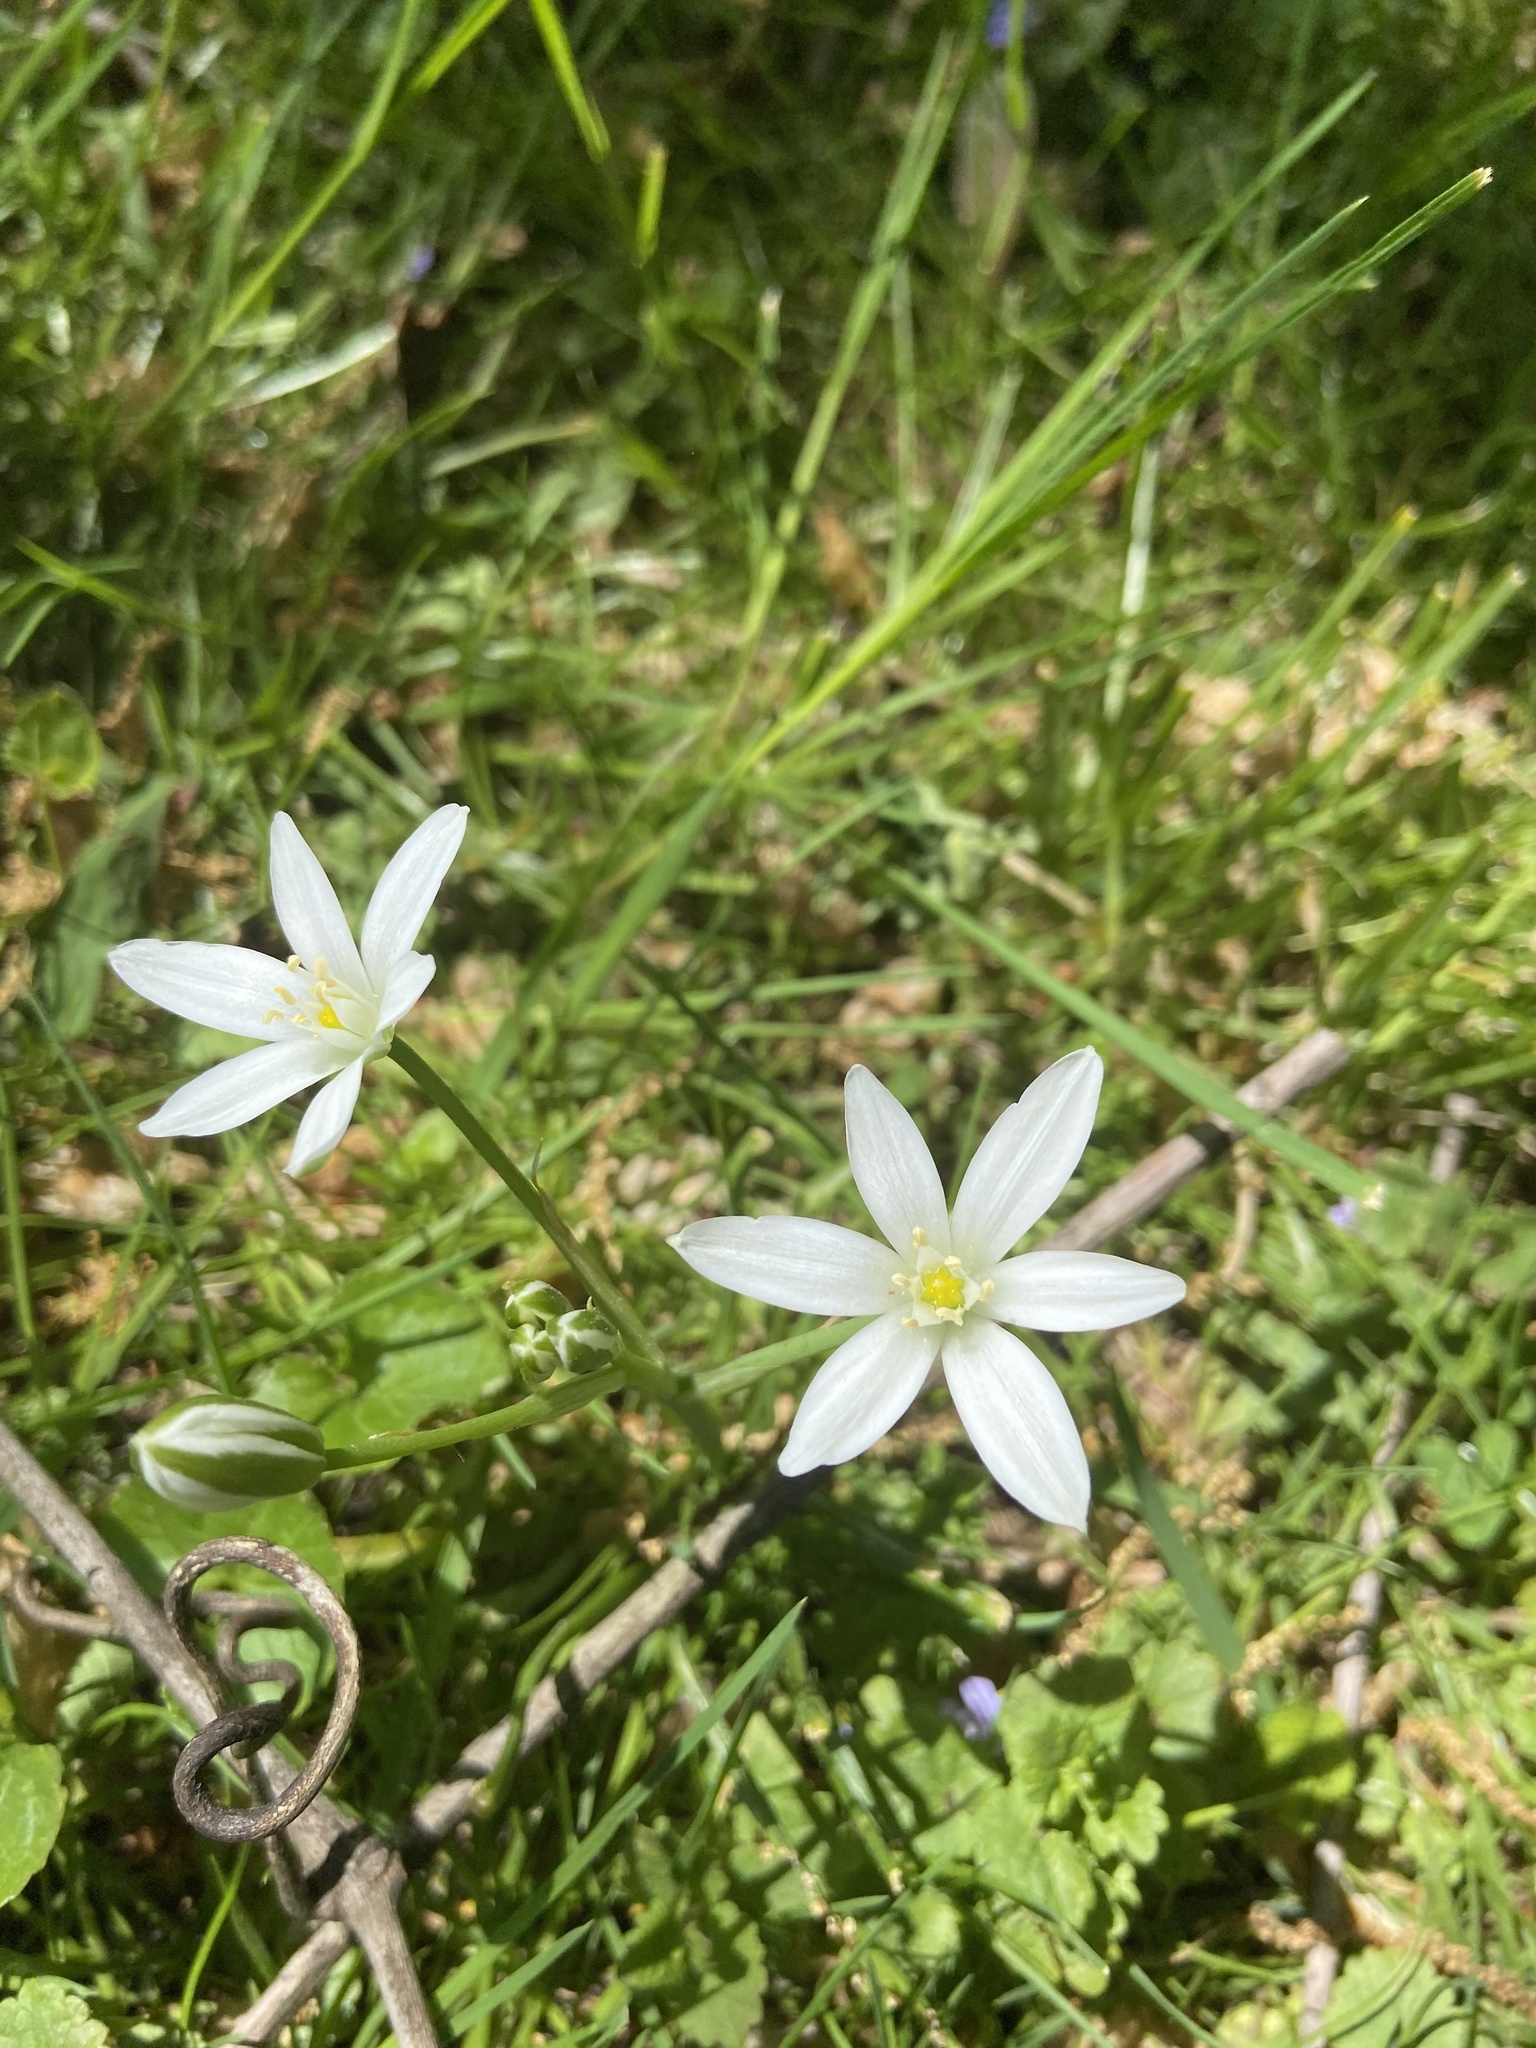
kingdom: Plantae
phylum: Tracheophyta
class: Liliopsida
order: Asparagales
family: Asparagaceae
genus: Ornithogalum
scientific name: Ornithogalum umbellatum
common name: Garden star-of-bethlehem
